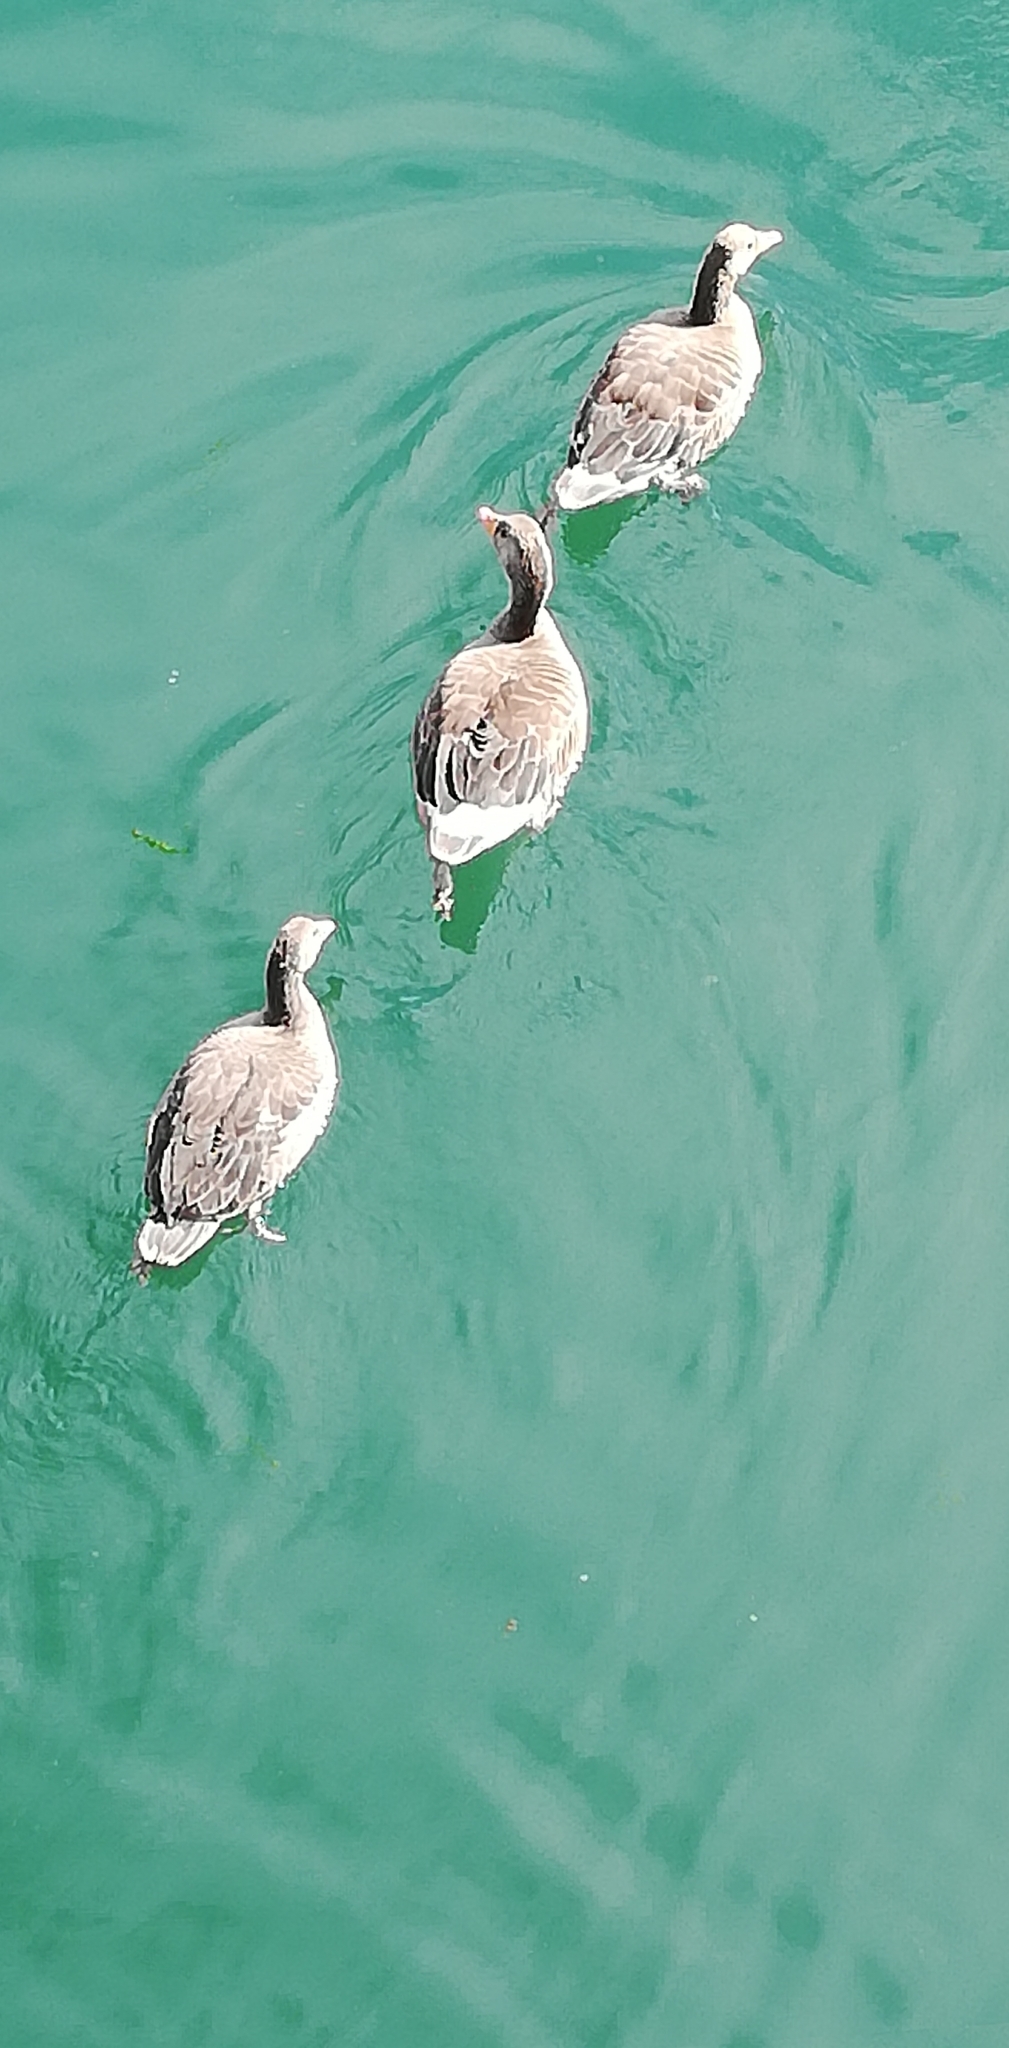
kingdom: Animalia
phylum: Chordata
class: Aves
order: Anseriformes
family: Anatidae
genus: Anser
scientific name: Anser anser
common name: Greylag goose
